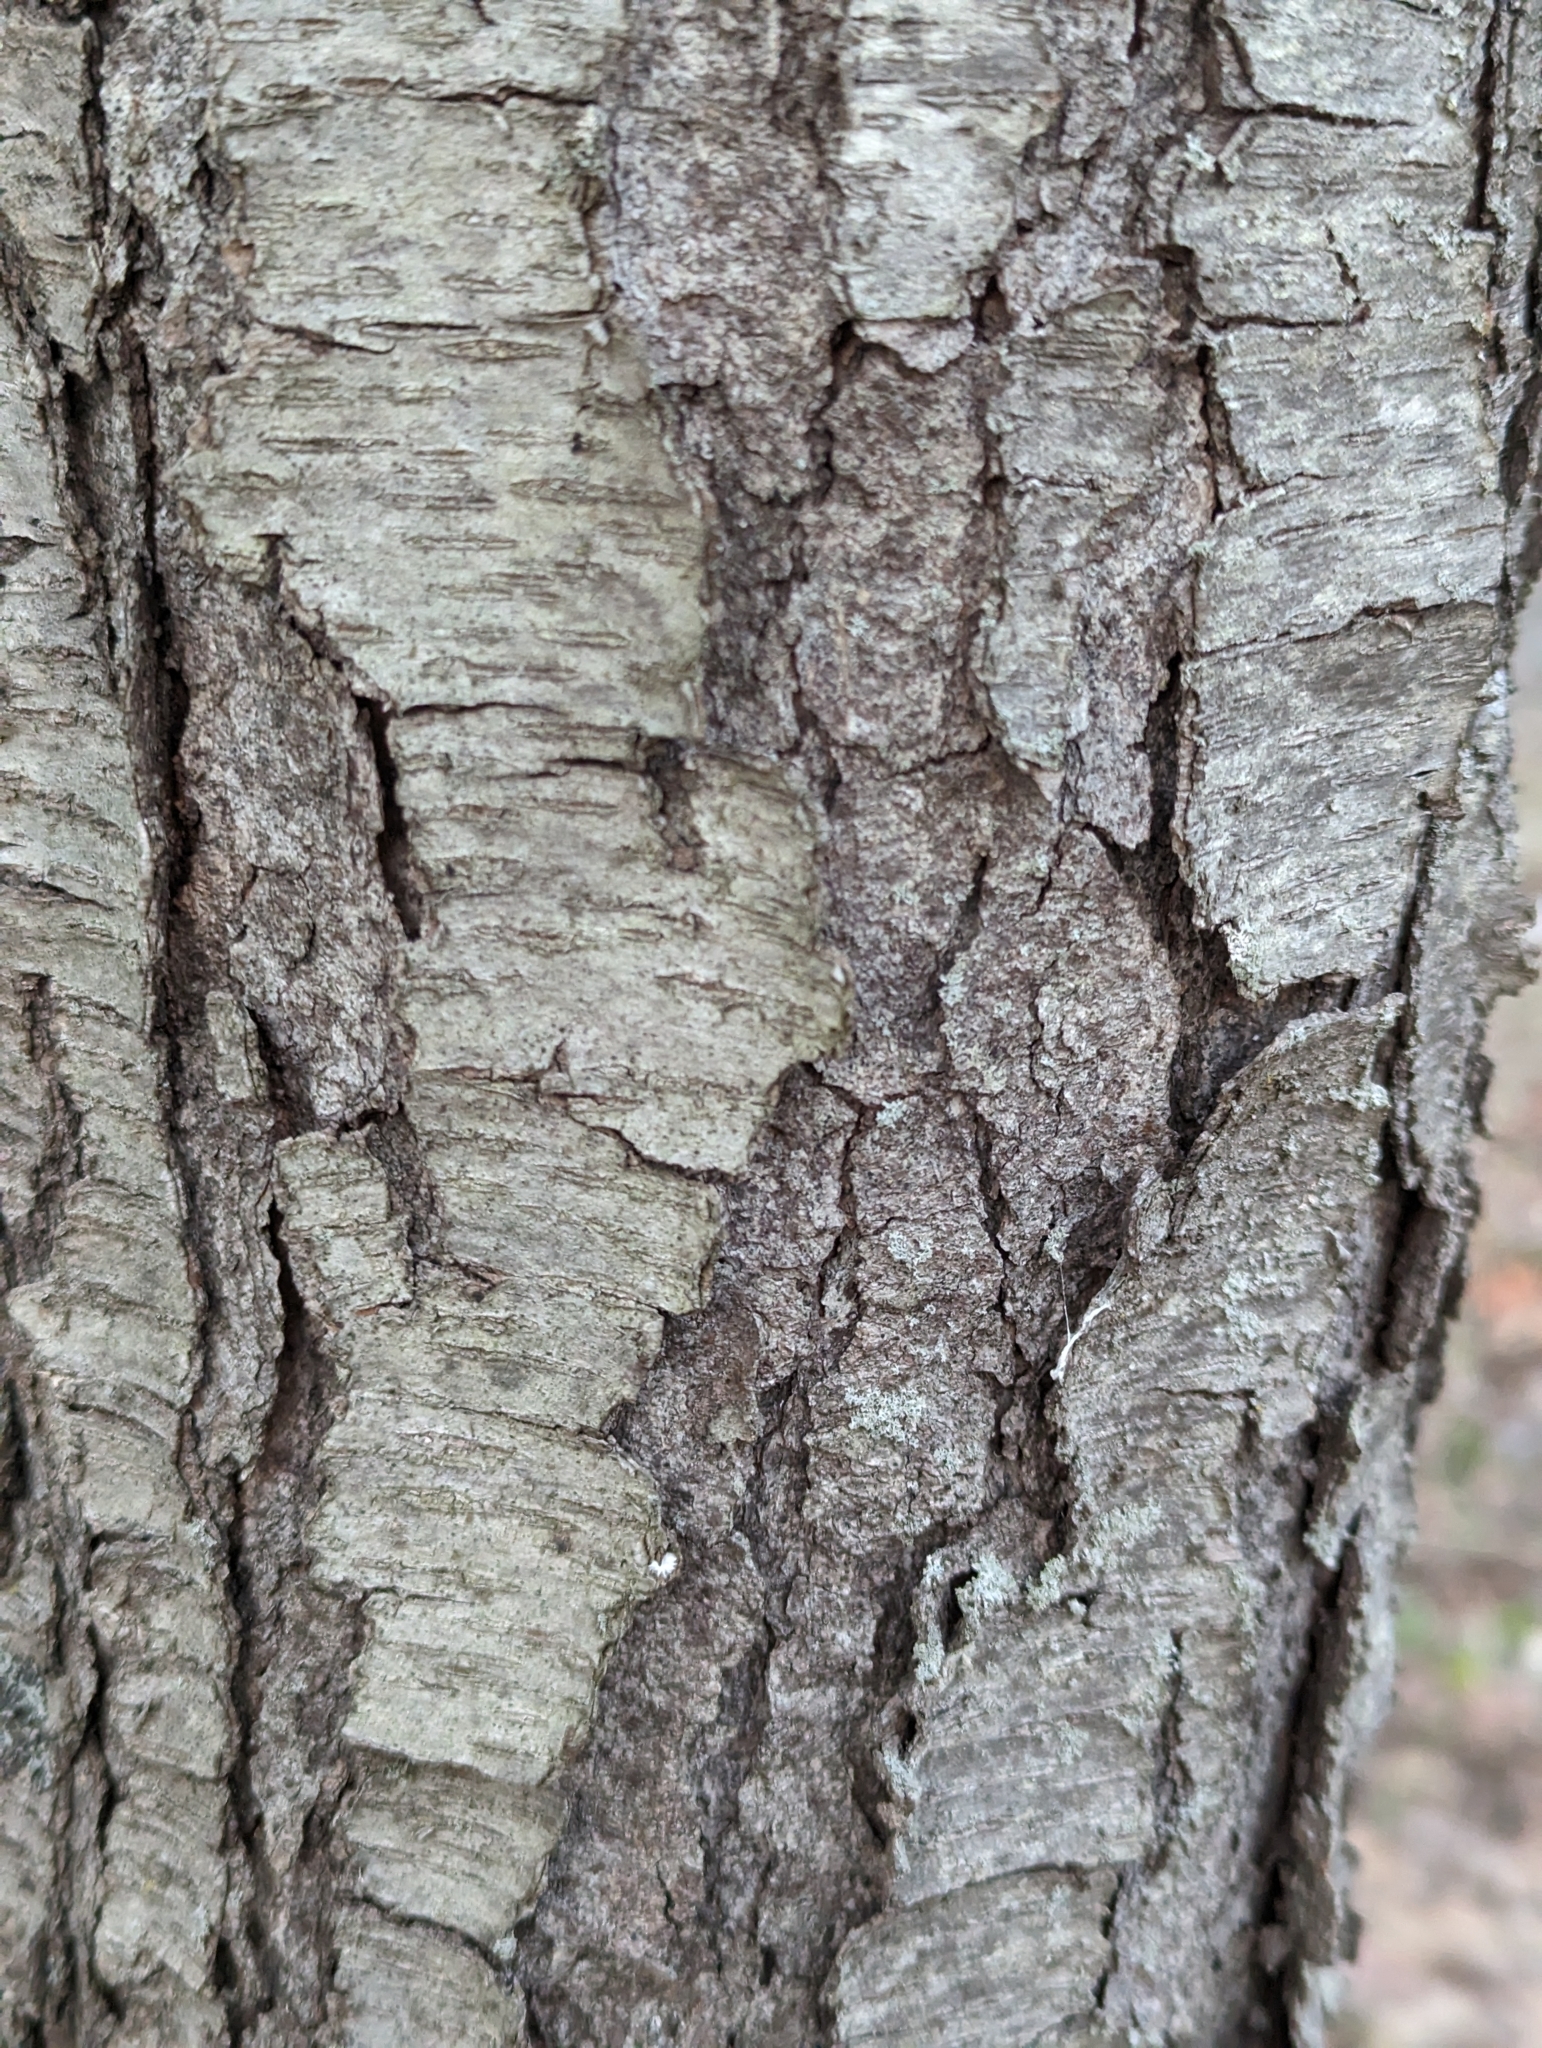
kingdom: Plantae
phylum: Tracheophyta
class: Magnoliopsida
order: Rosales
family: Rosaceae
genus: Prunus
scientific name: Prunus serotina
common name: Black cherry
